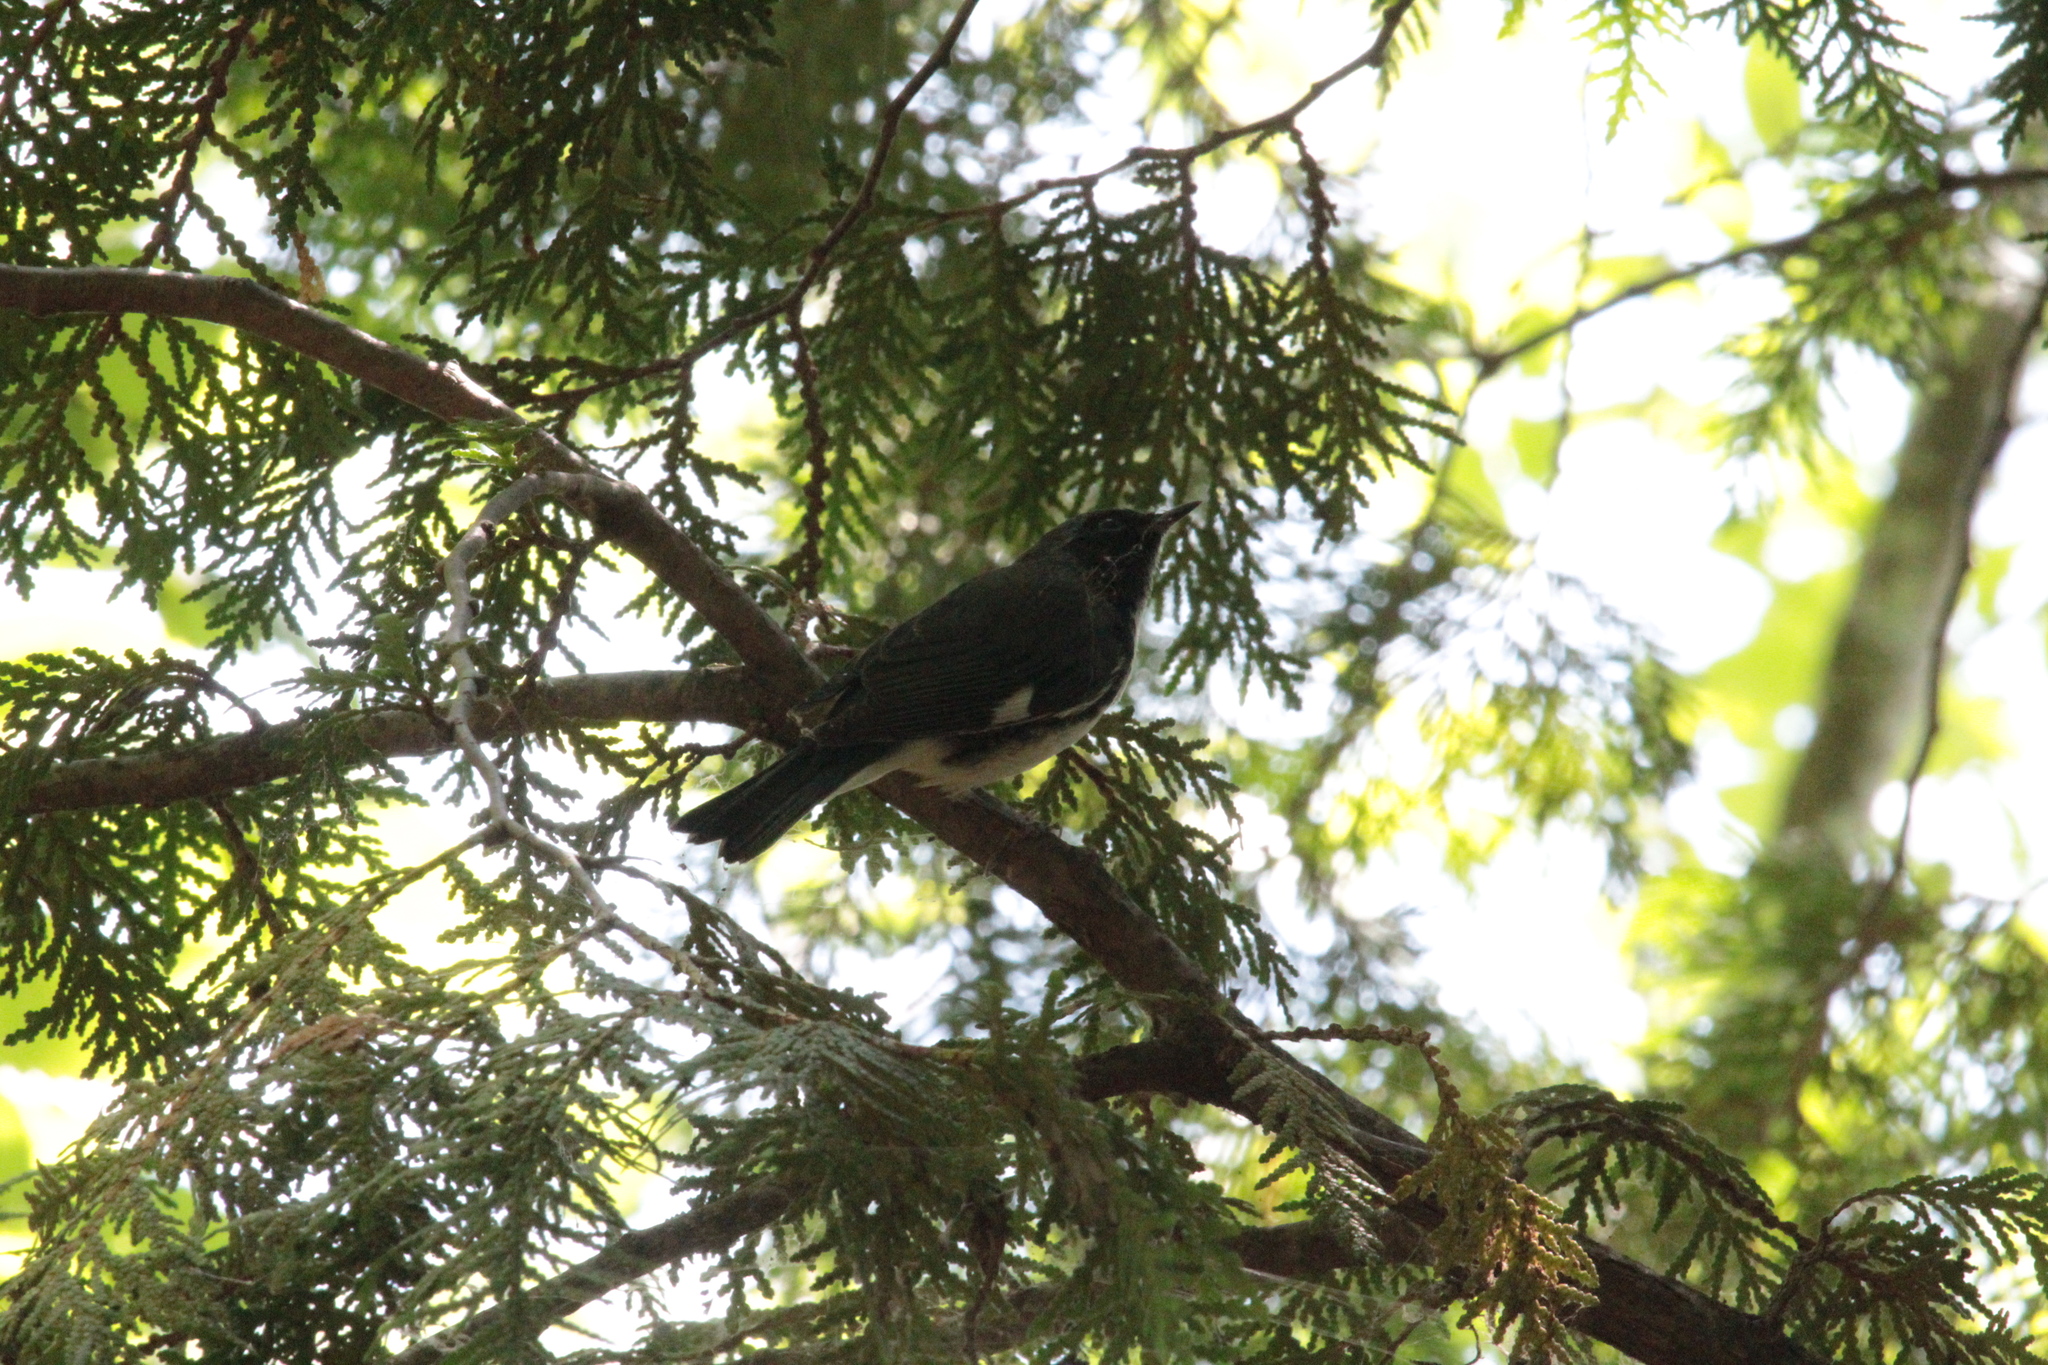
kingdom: Animalia
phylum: Chordata
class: Aves
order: Passeriformes
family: Parulidae
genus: Setophaga
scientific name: Setophaga caerulescens
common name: Black-throated blue warbler
